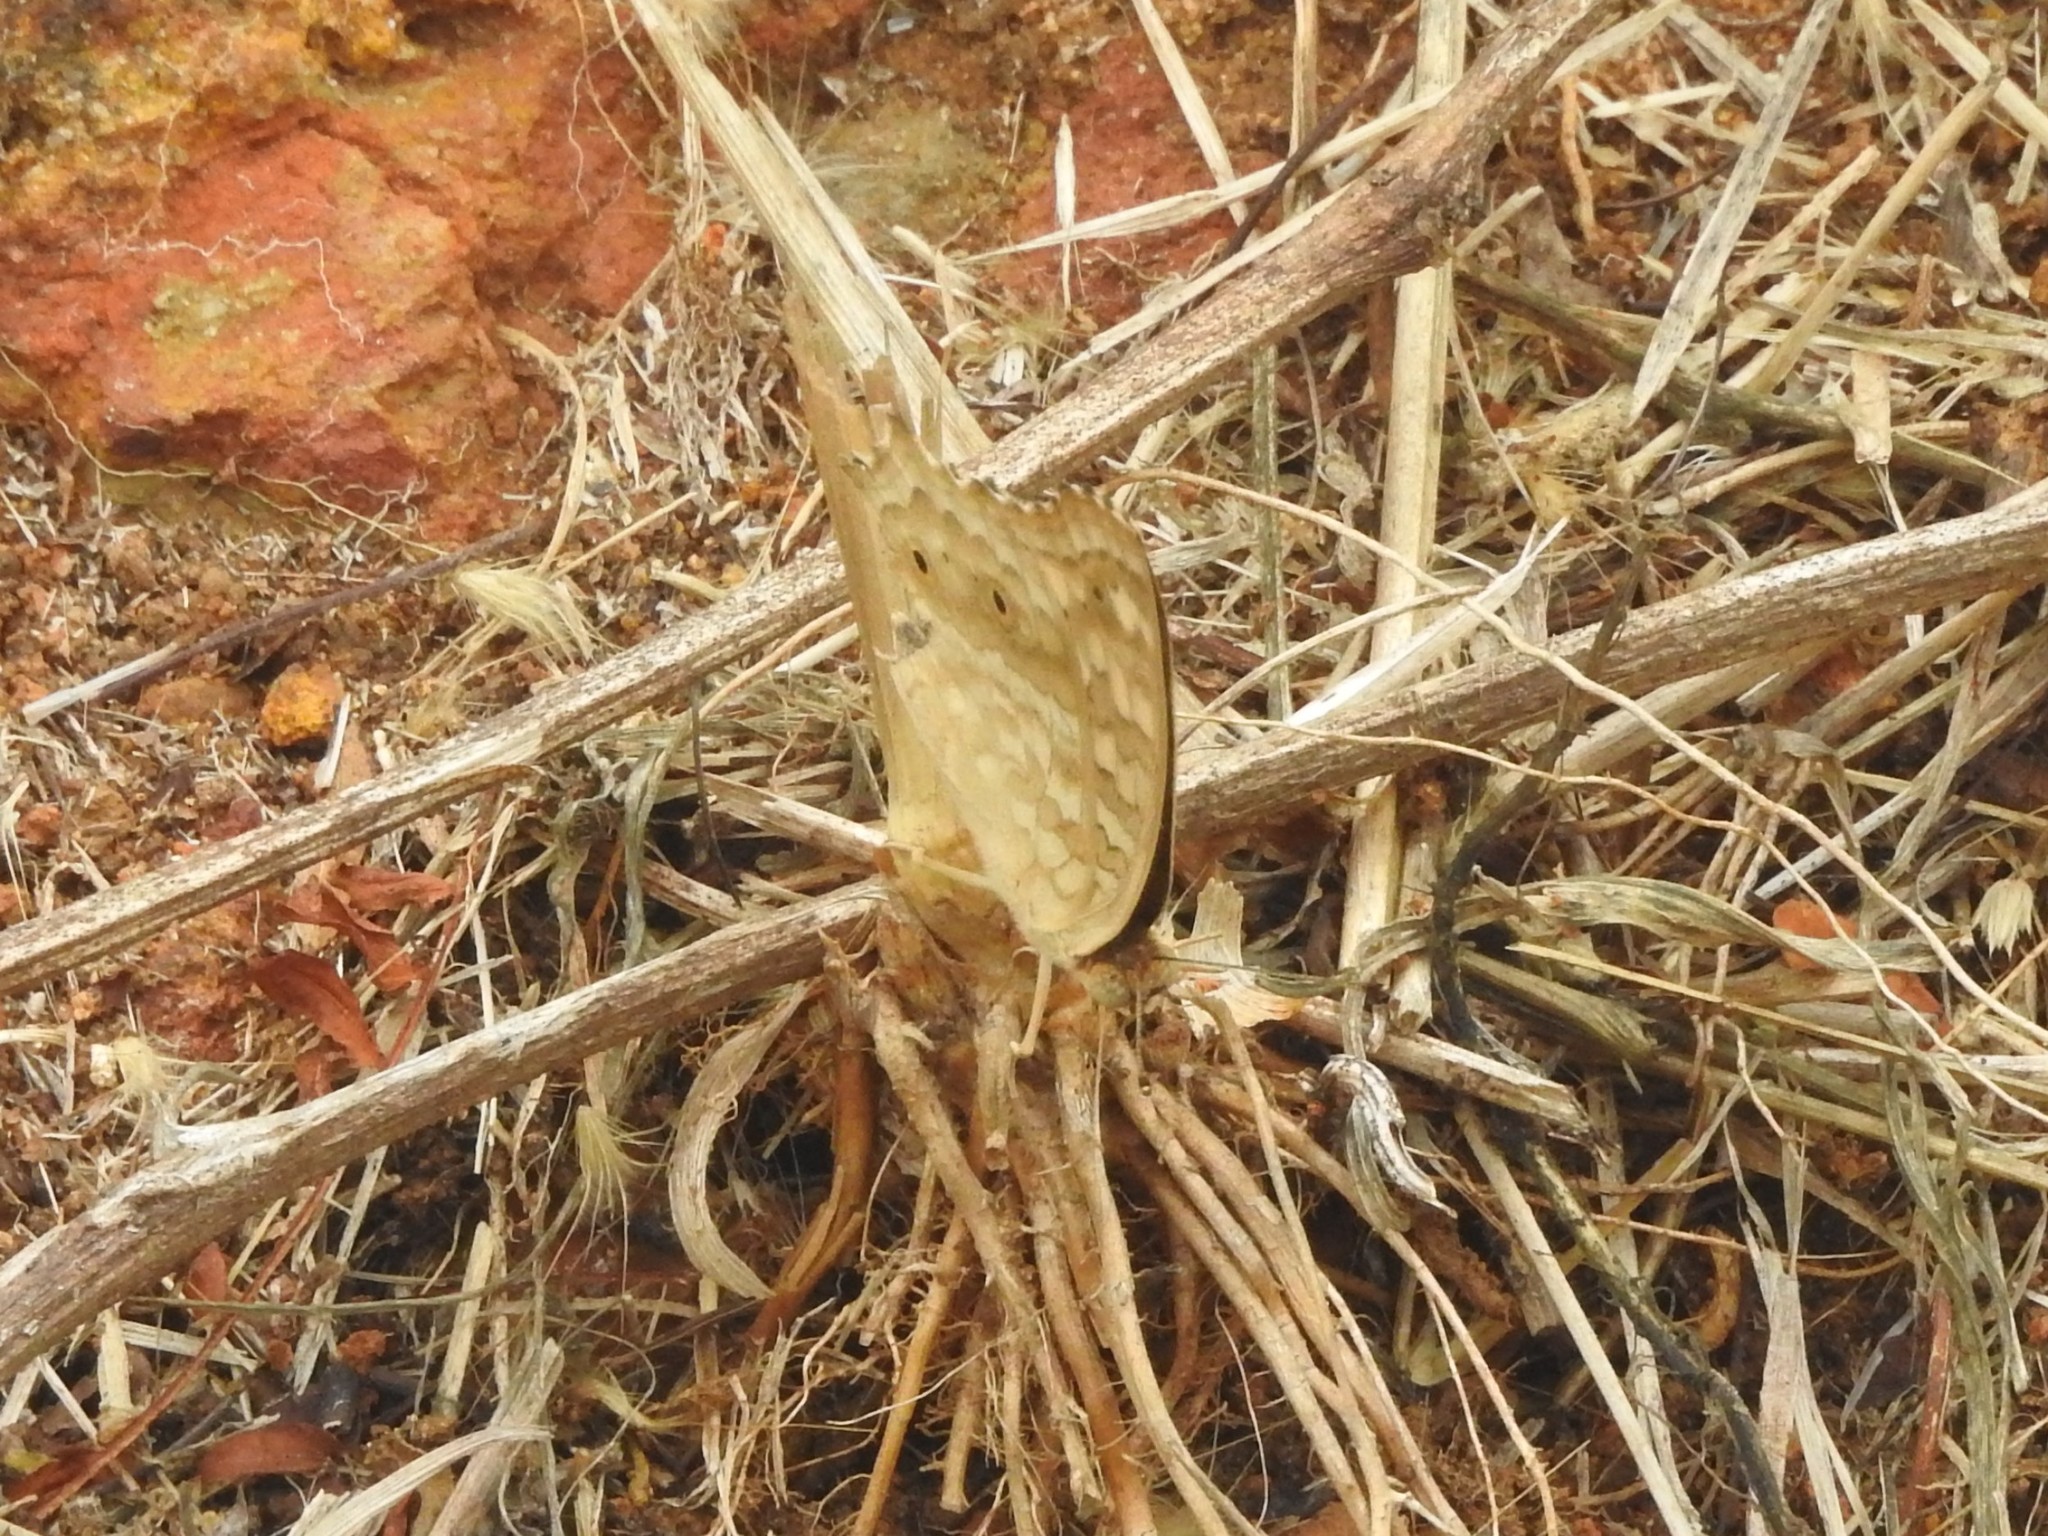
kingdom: Animalia
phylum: Arthropoda
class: Insecta
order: Lepidoptera
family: Nymphalidae
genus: Junonia
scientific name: Junonia lemonias
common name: Lemon pansy
